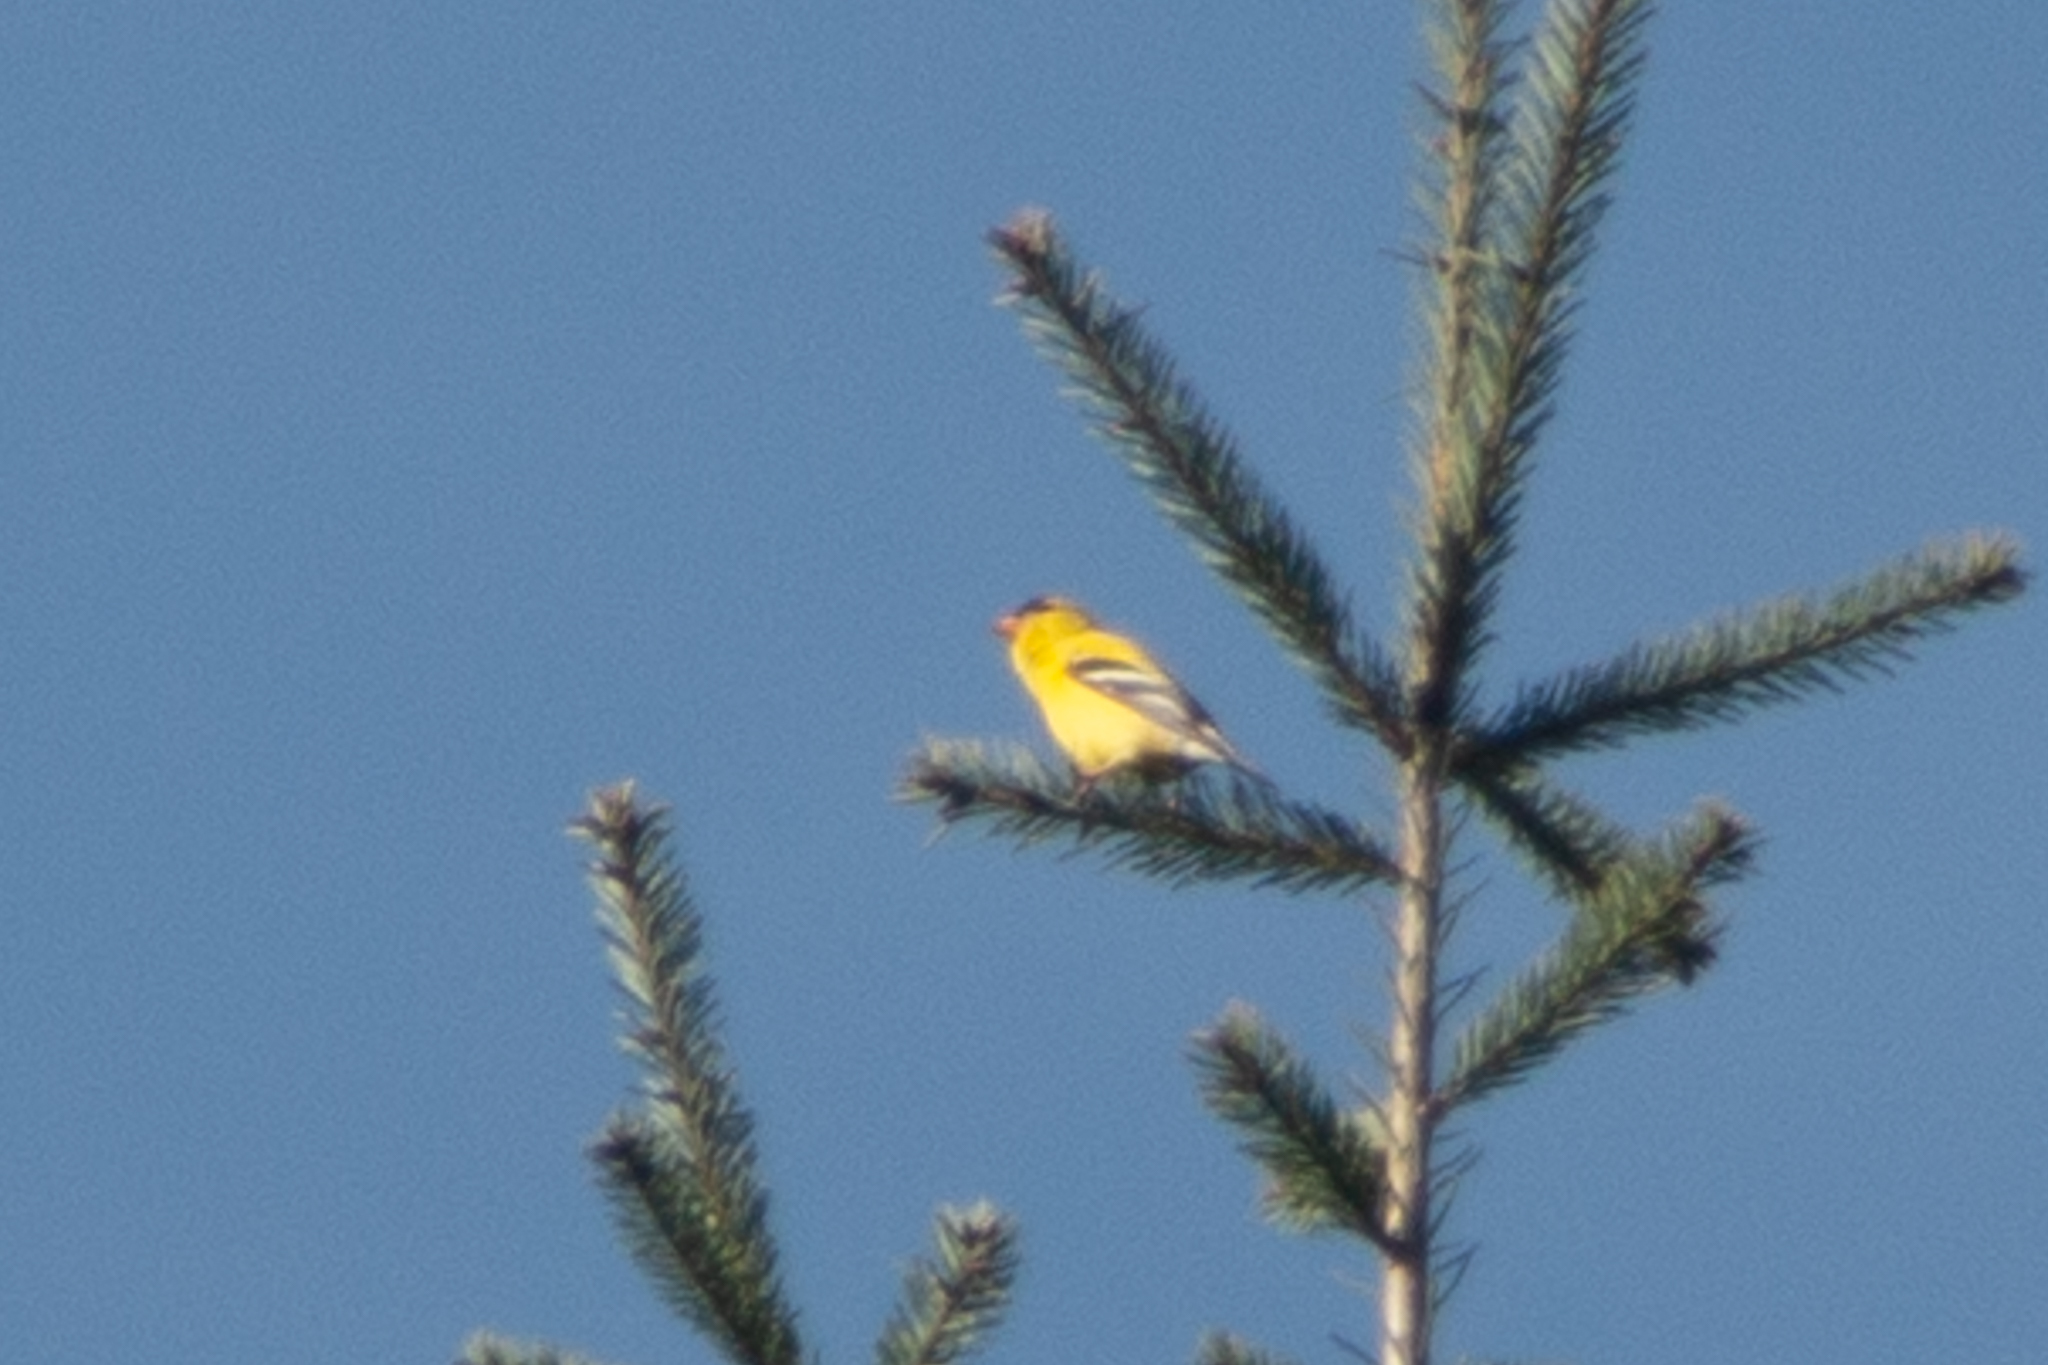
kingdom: Animalia
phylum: Chordata
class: Aves
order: Passeriformes
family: Fringillidae
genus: Spinus
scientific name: Spinus tristis
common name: American goldfinch
